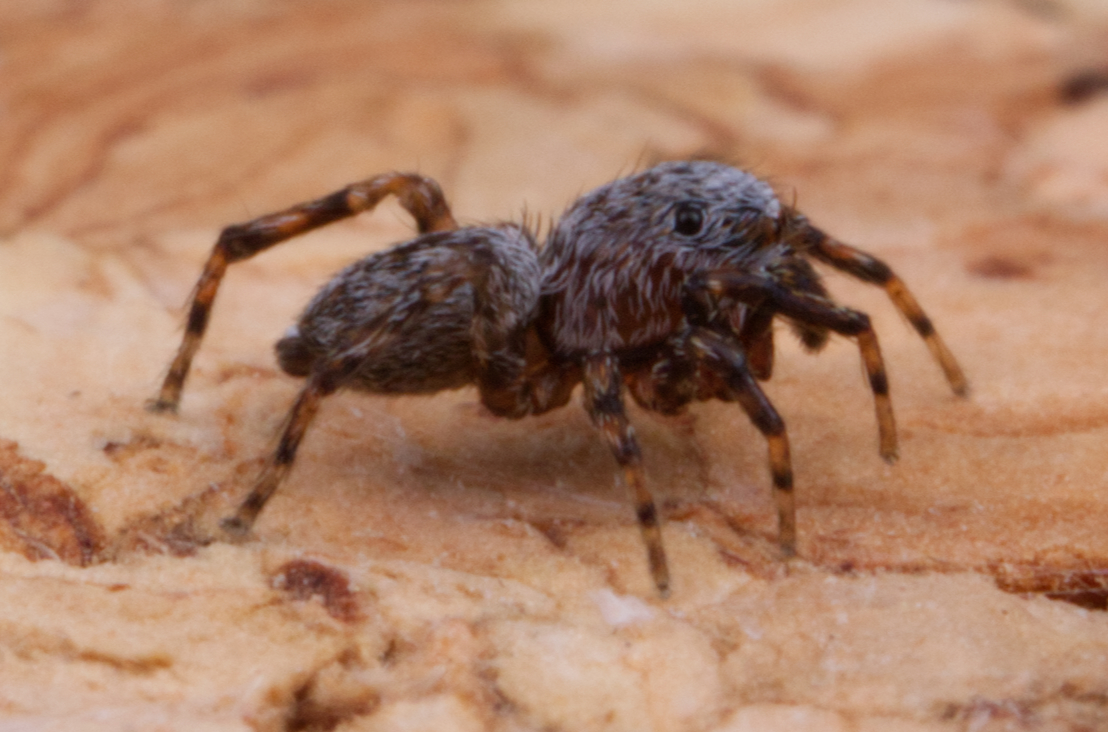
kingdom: Animalia
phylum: Arthropoda
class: Arachnida
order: Araneae
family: Salticidae
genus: Attinella
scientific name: Attinella concolor
